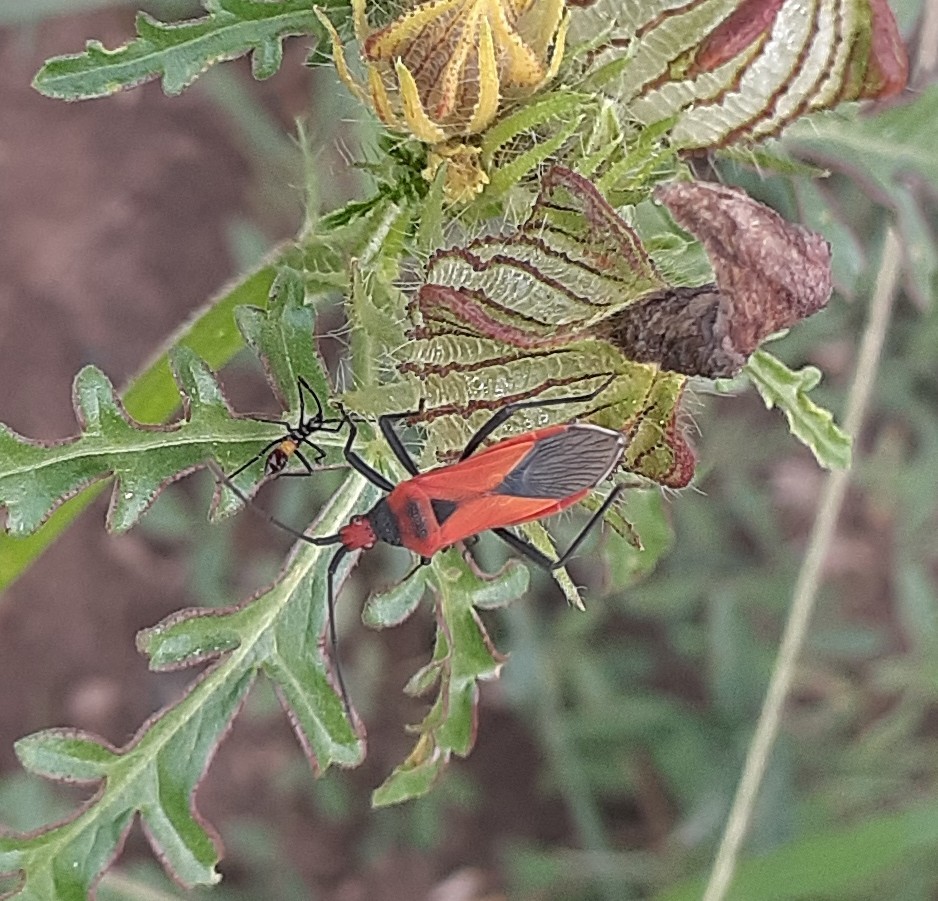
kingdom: Animalia
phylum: Arthropoda
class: Insecta
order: Hemiptera
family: Coreidae
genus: Aulacosternum
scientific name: Aulacosternum nigrorubrum
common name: Cotton plant bug
